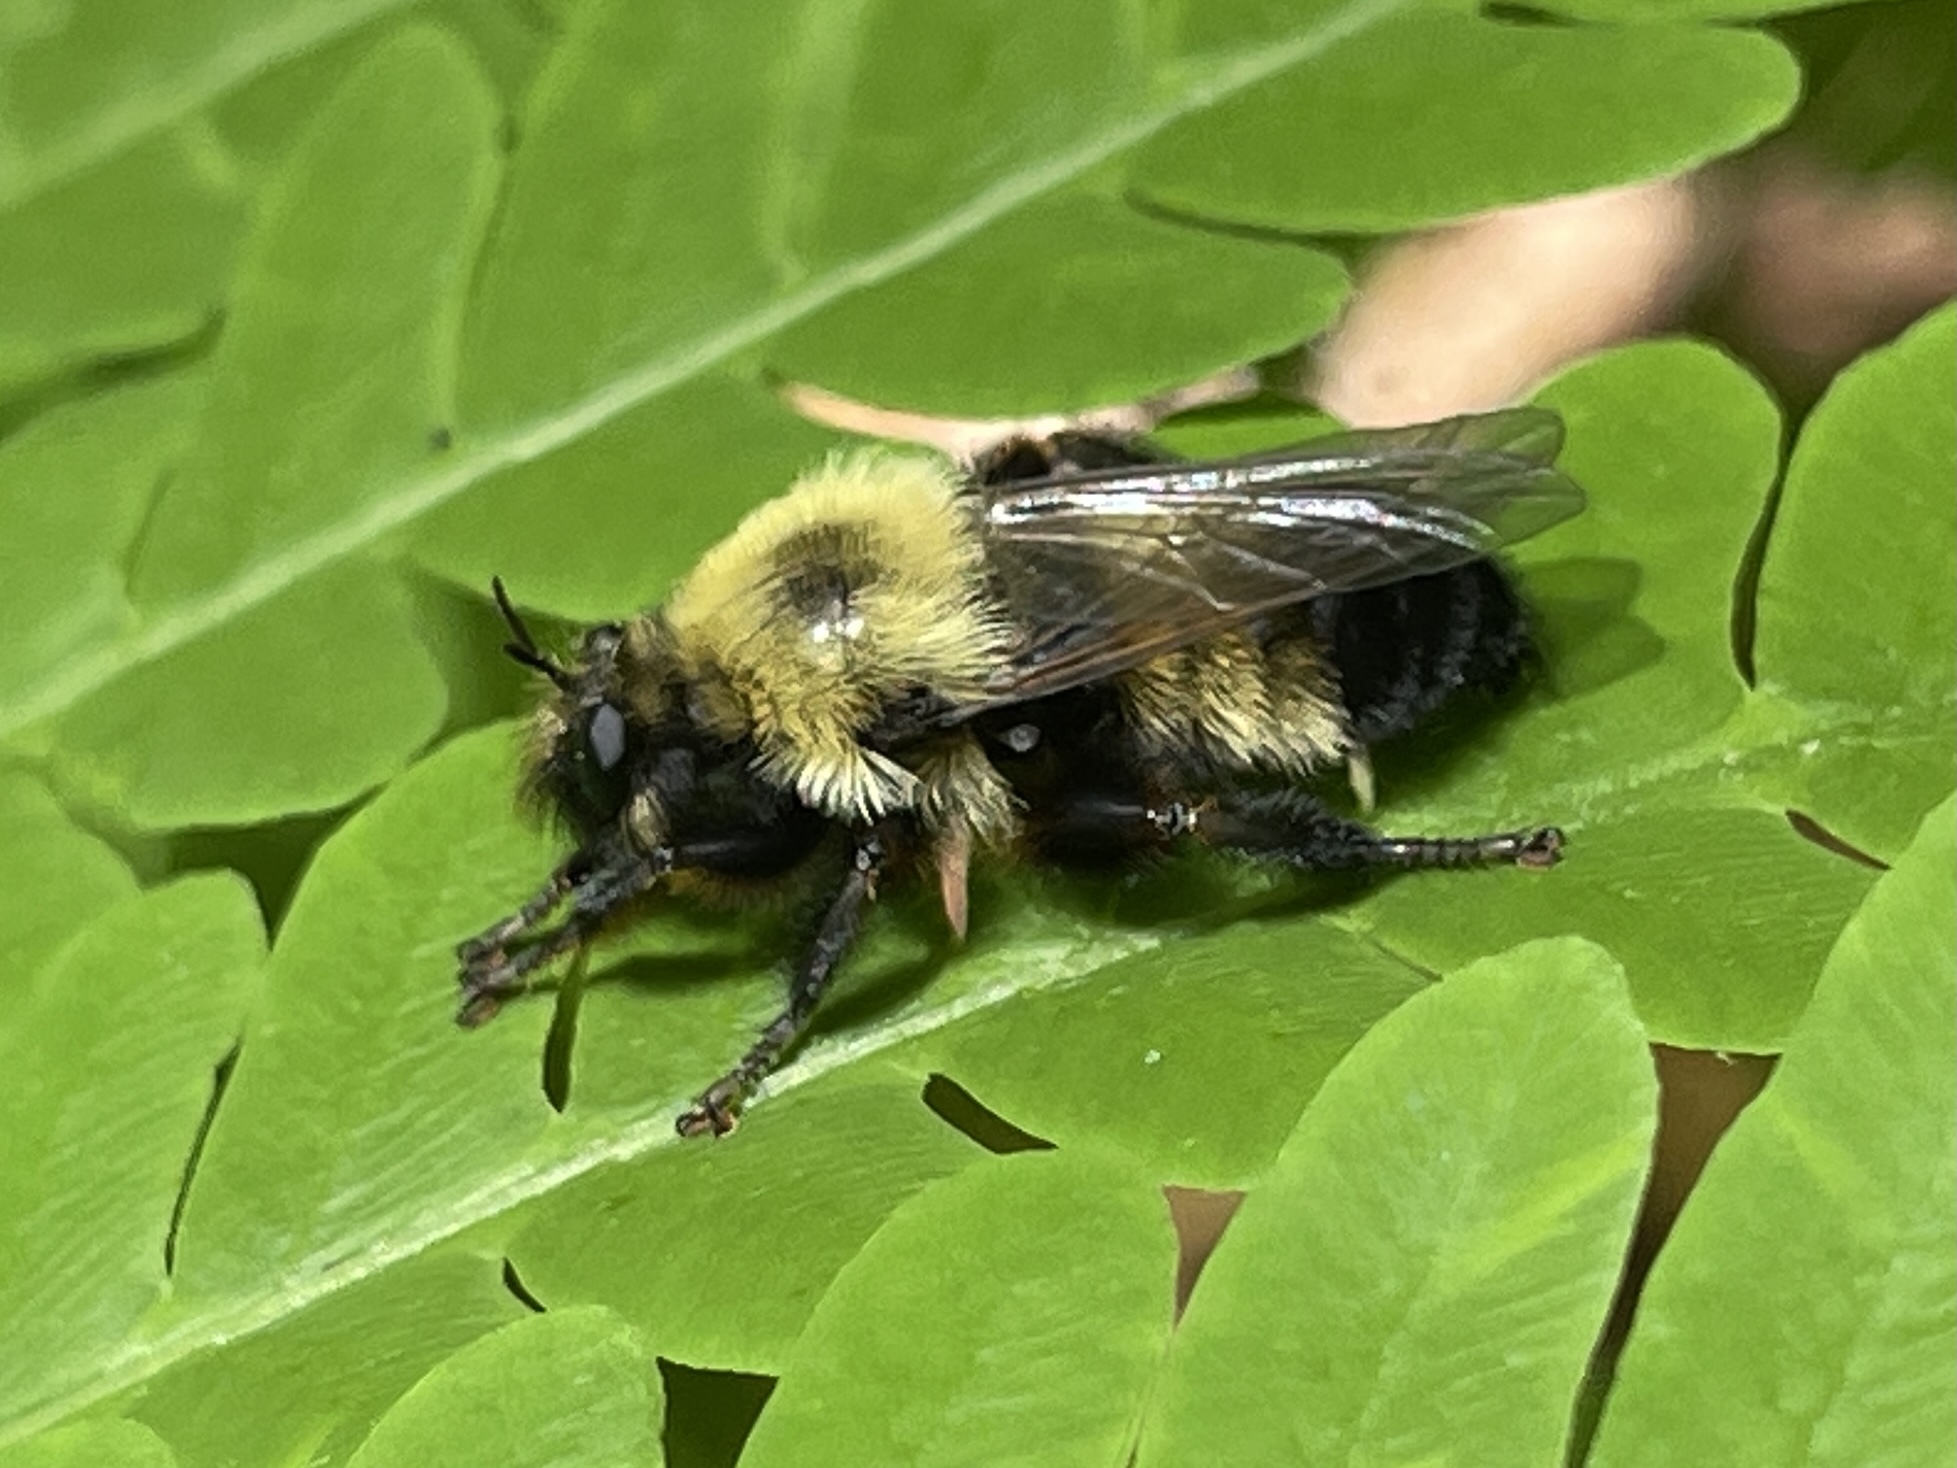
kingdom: Animalia
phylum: Arthropoda
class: Insecta
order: Diptera
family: Asilidae
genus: Laphria
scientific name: Laphria thoracica
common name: Bumble bee mimic robber fly
